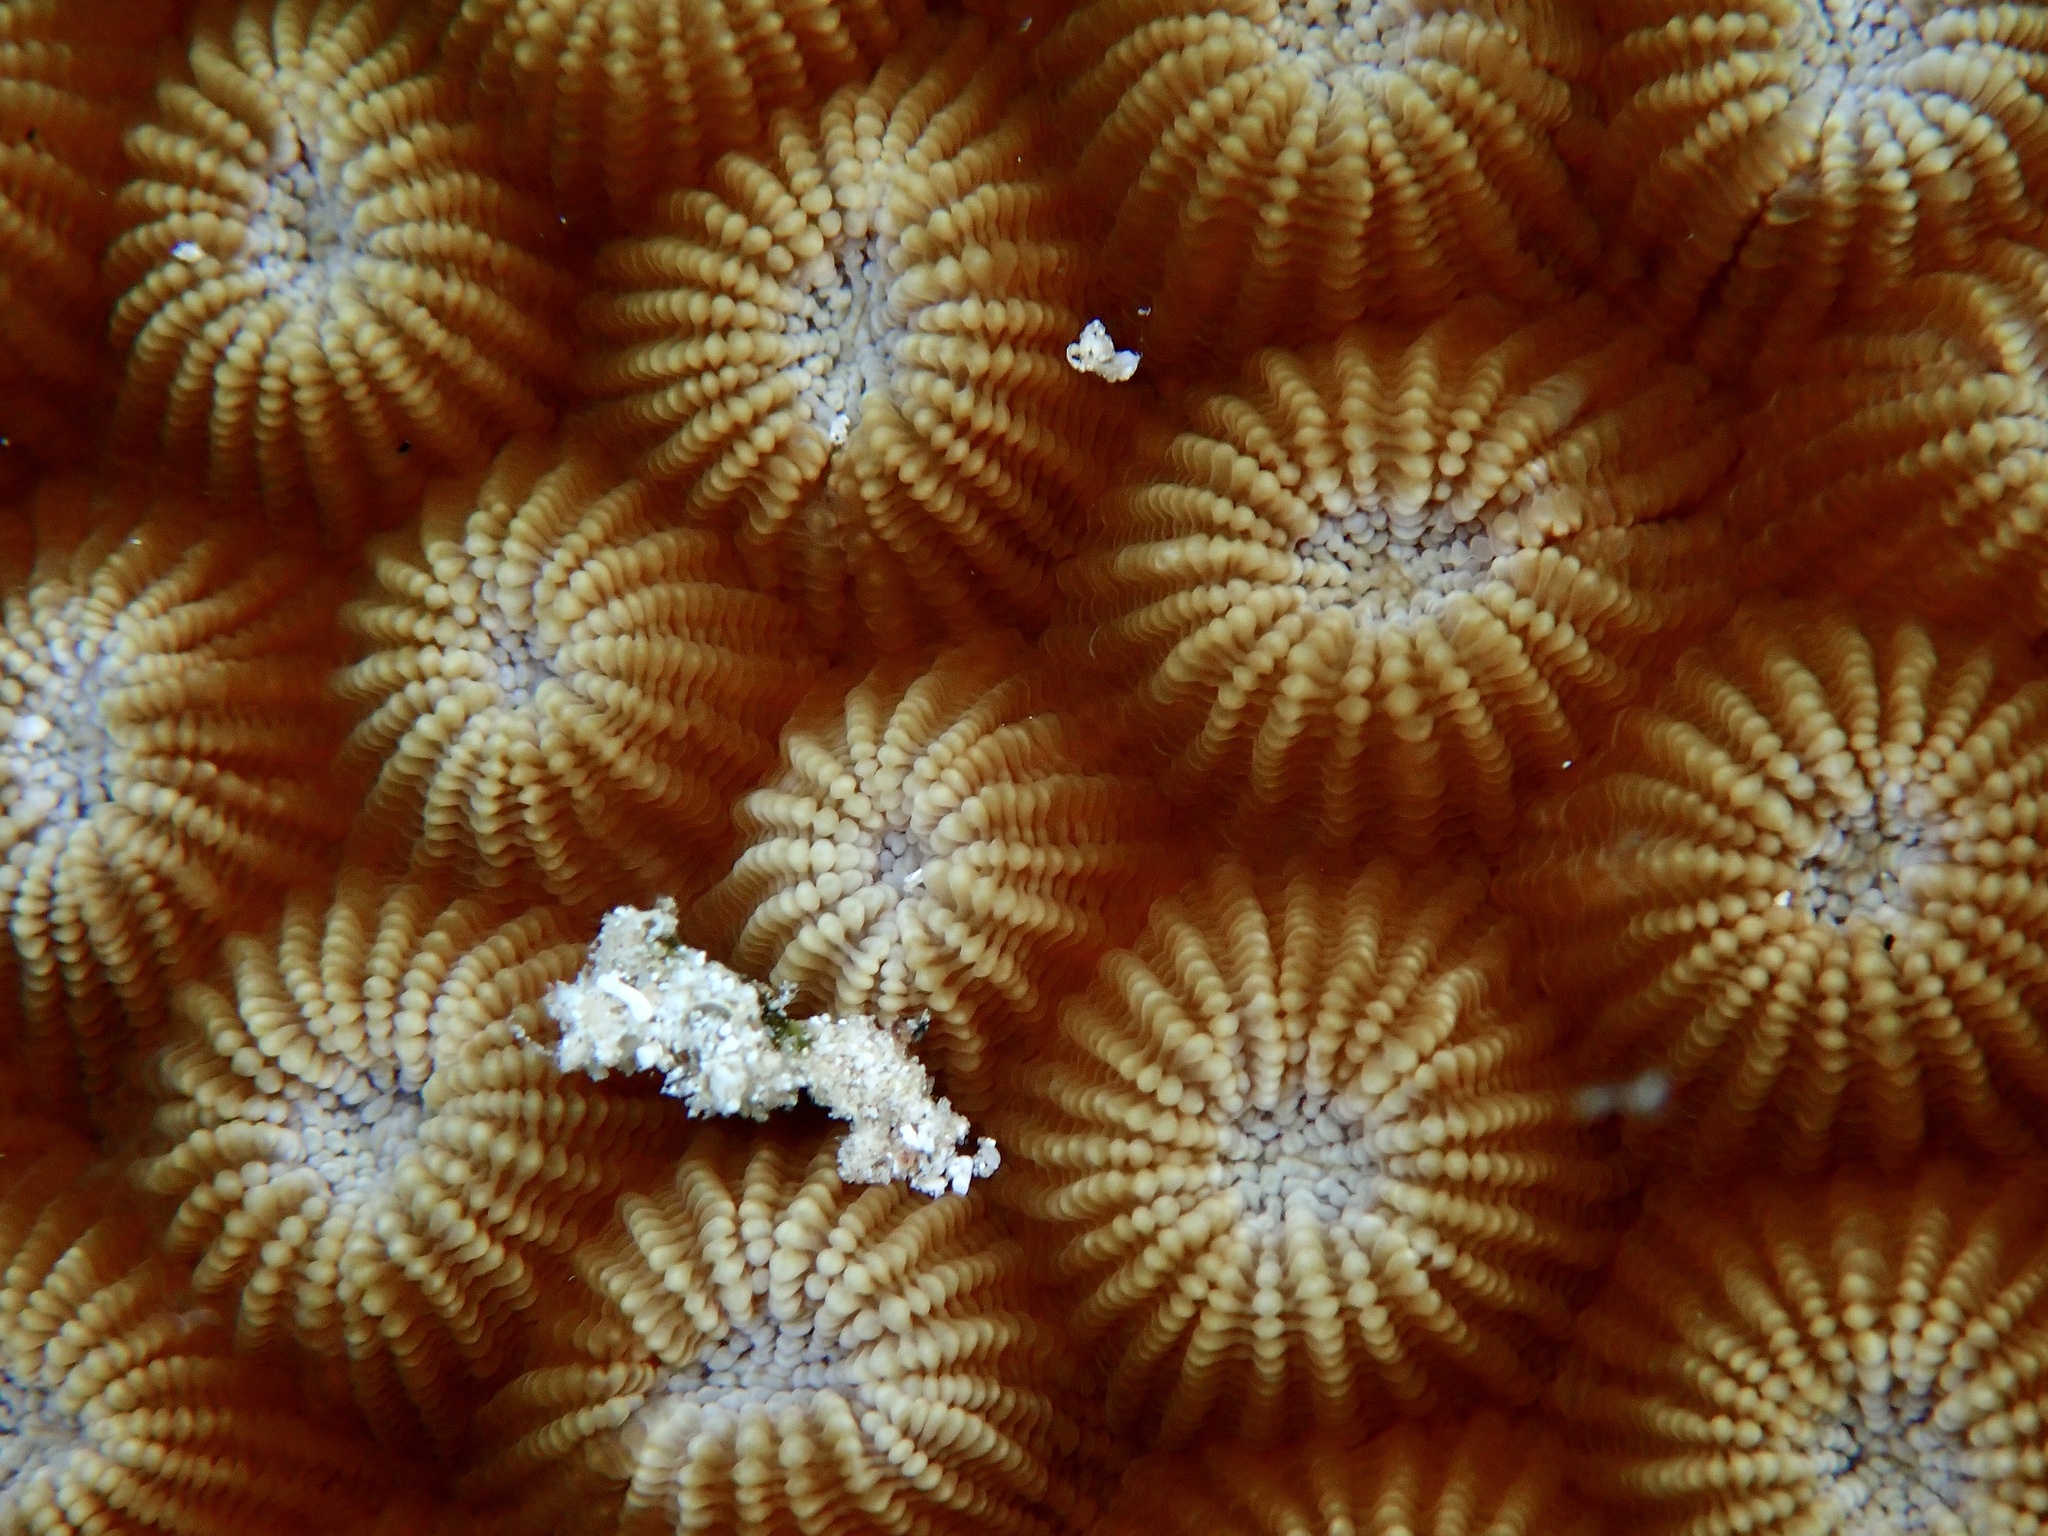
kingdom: Animalia
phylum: Cnidaria
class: Anthozoa
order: Scleractinia
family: Diploastraeidae
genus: Diploastrea
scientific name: Diploastrea heliopora
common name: Double-star coral
